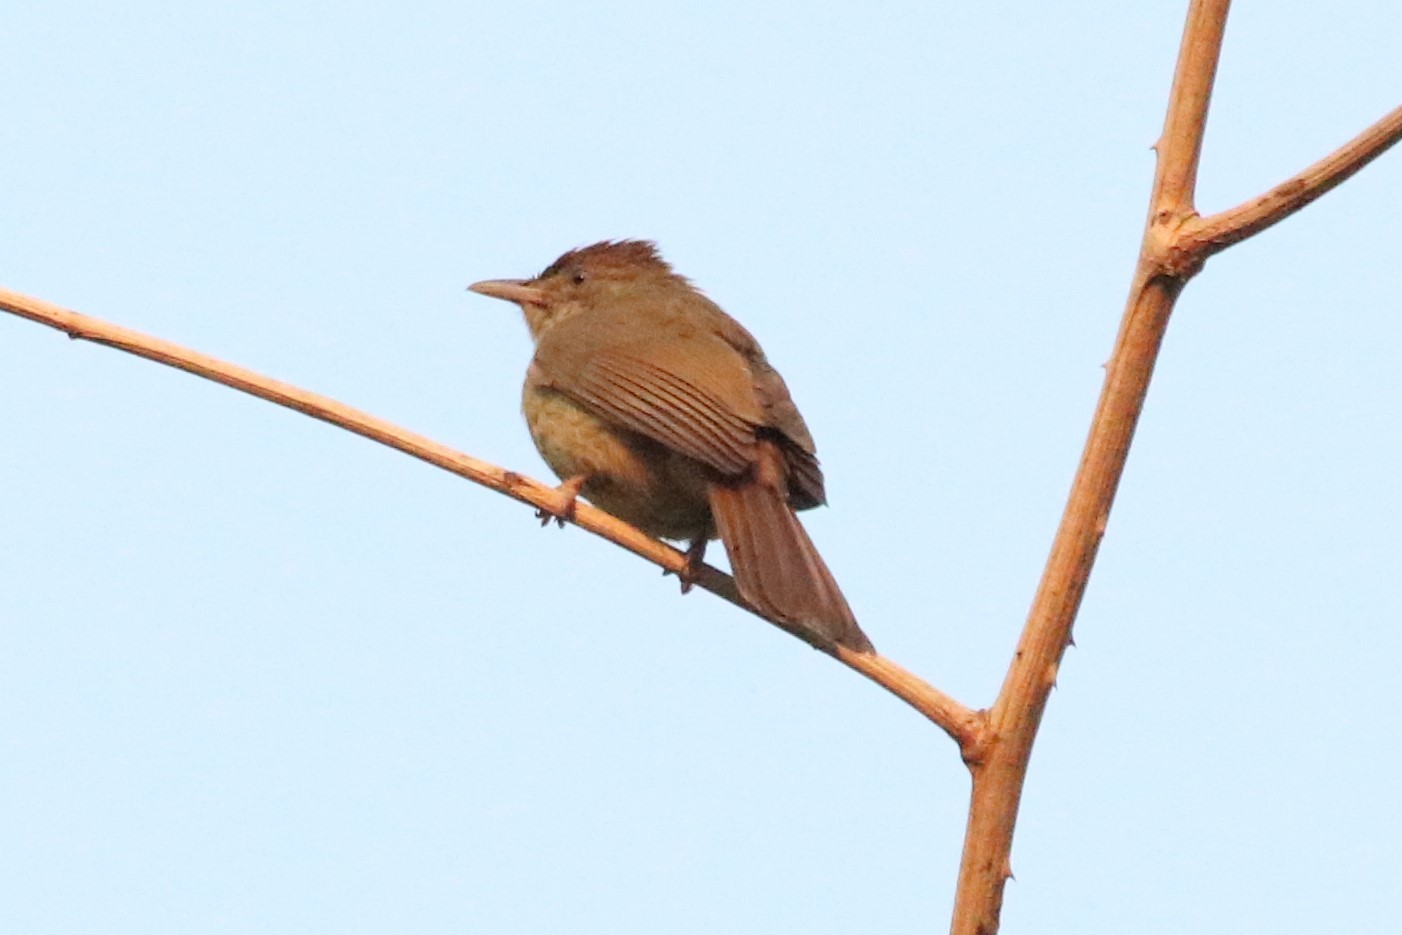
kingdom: Animalia
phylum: Chordata
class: Aves
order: Passeriformes
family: Pycnonotidae
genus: Iole
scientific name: Iole propinqua
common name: Grey-eyed bulbul
